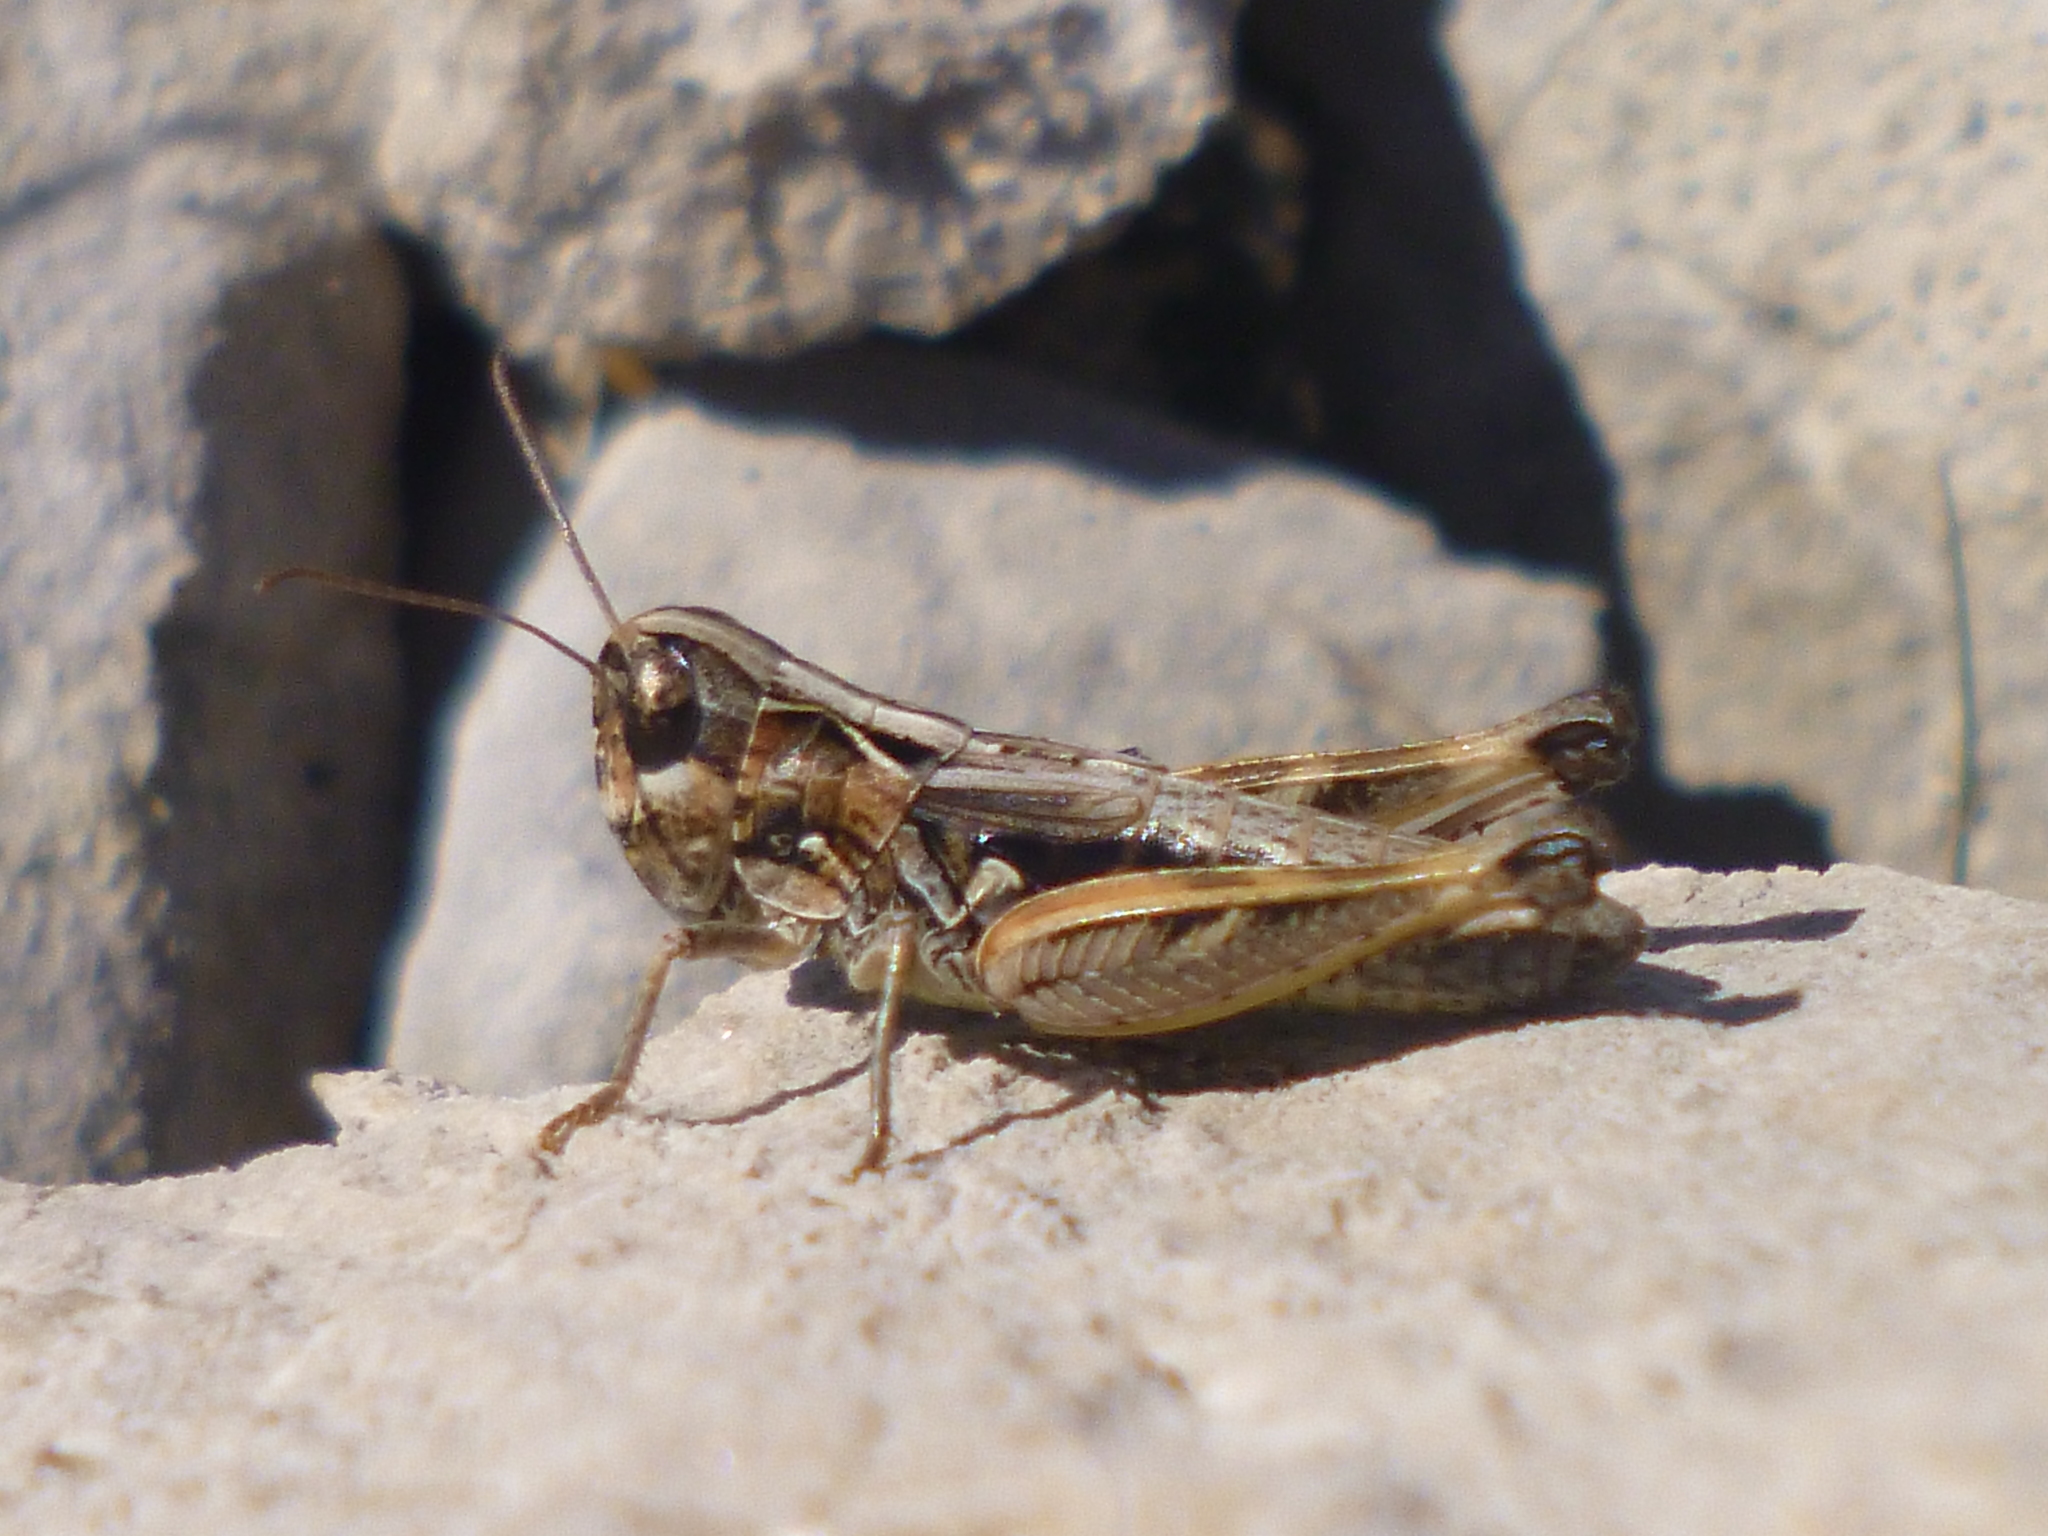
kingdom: Animalia
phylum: Arthropoda
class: Insecta
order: Orthoptera
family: Acrididae
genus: Rammeihippus
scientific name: Rammeihippus dinaricus
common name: Dinarian grasshopper
